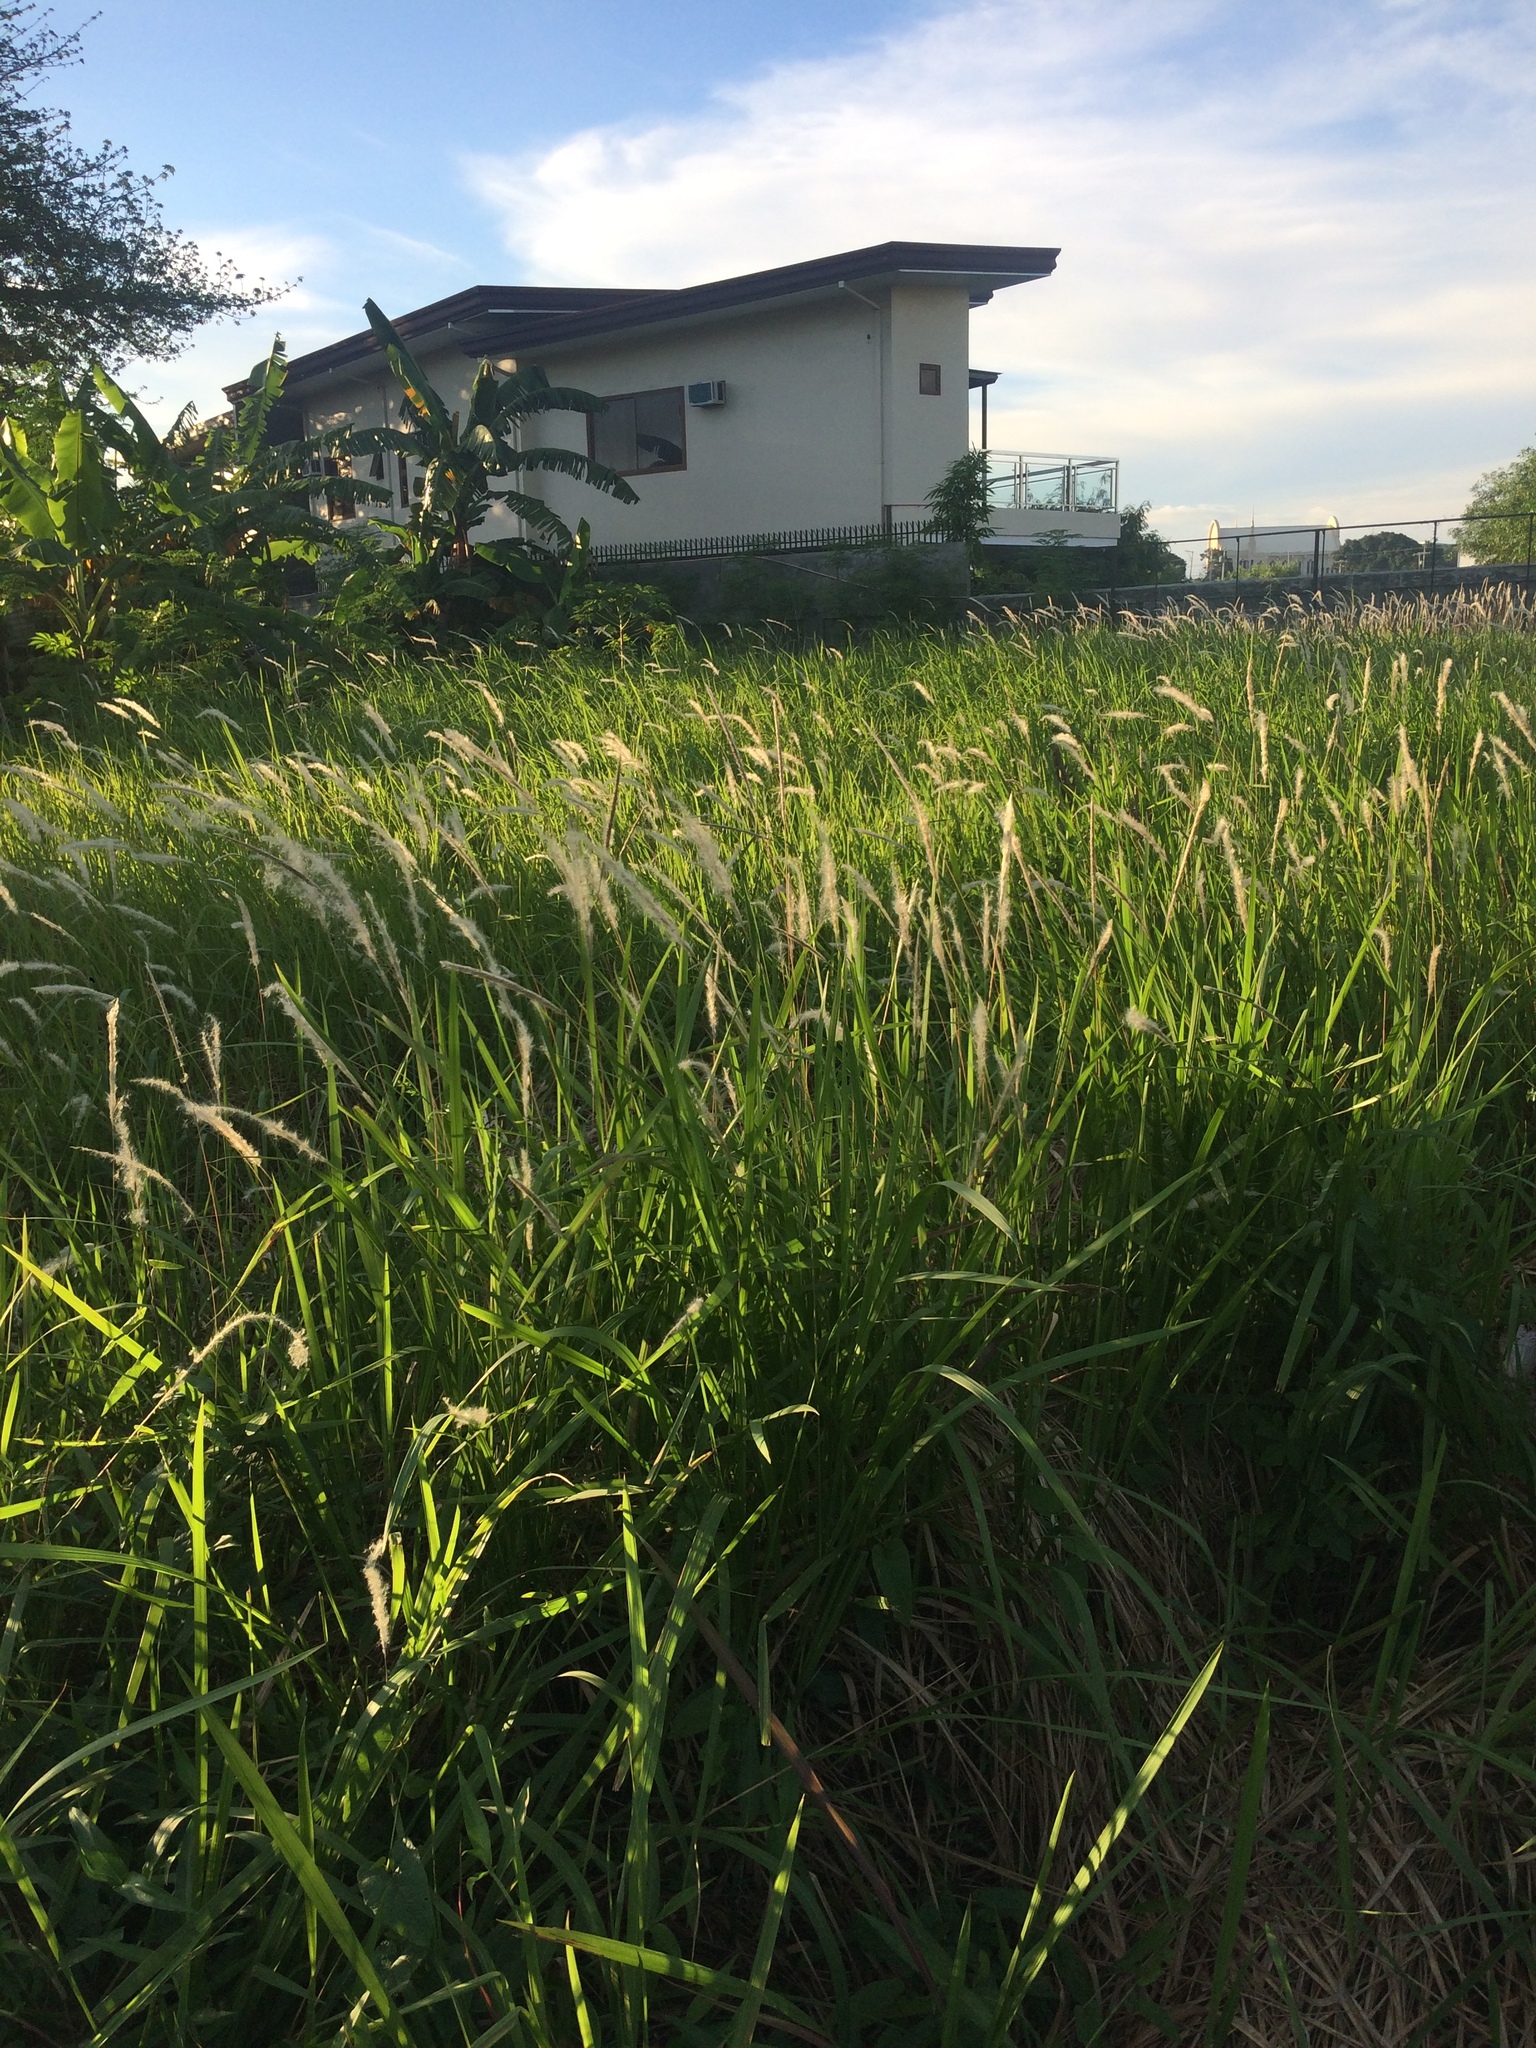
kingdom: Plantae
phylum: Tracheophyta
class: Liliopsida
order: Poales
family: Poaceae
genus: Imperata
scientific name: Imperata cylindrica
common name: Cogongrass
